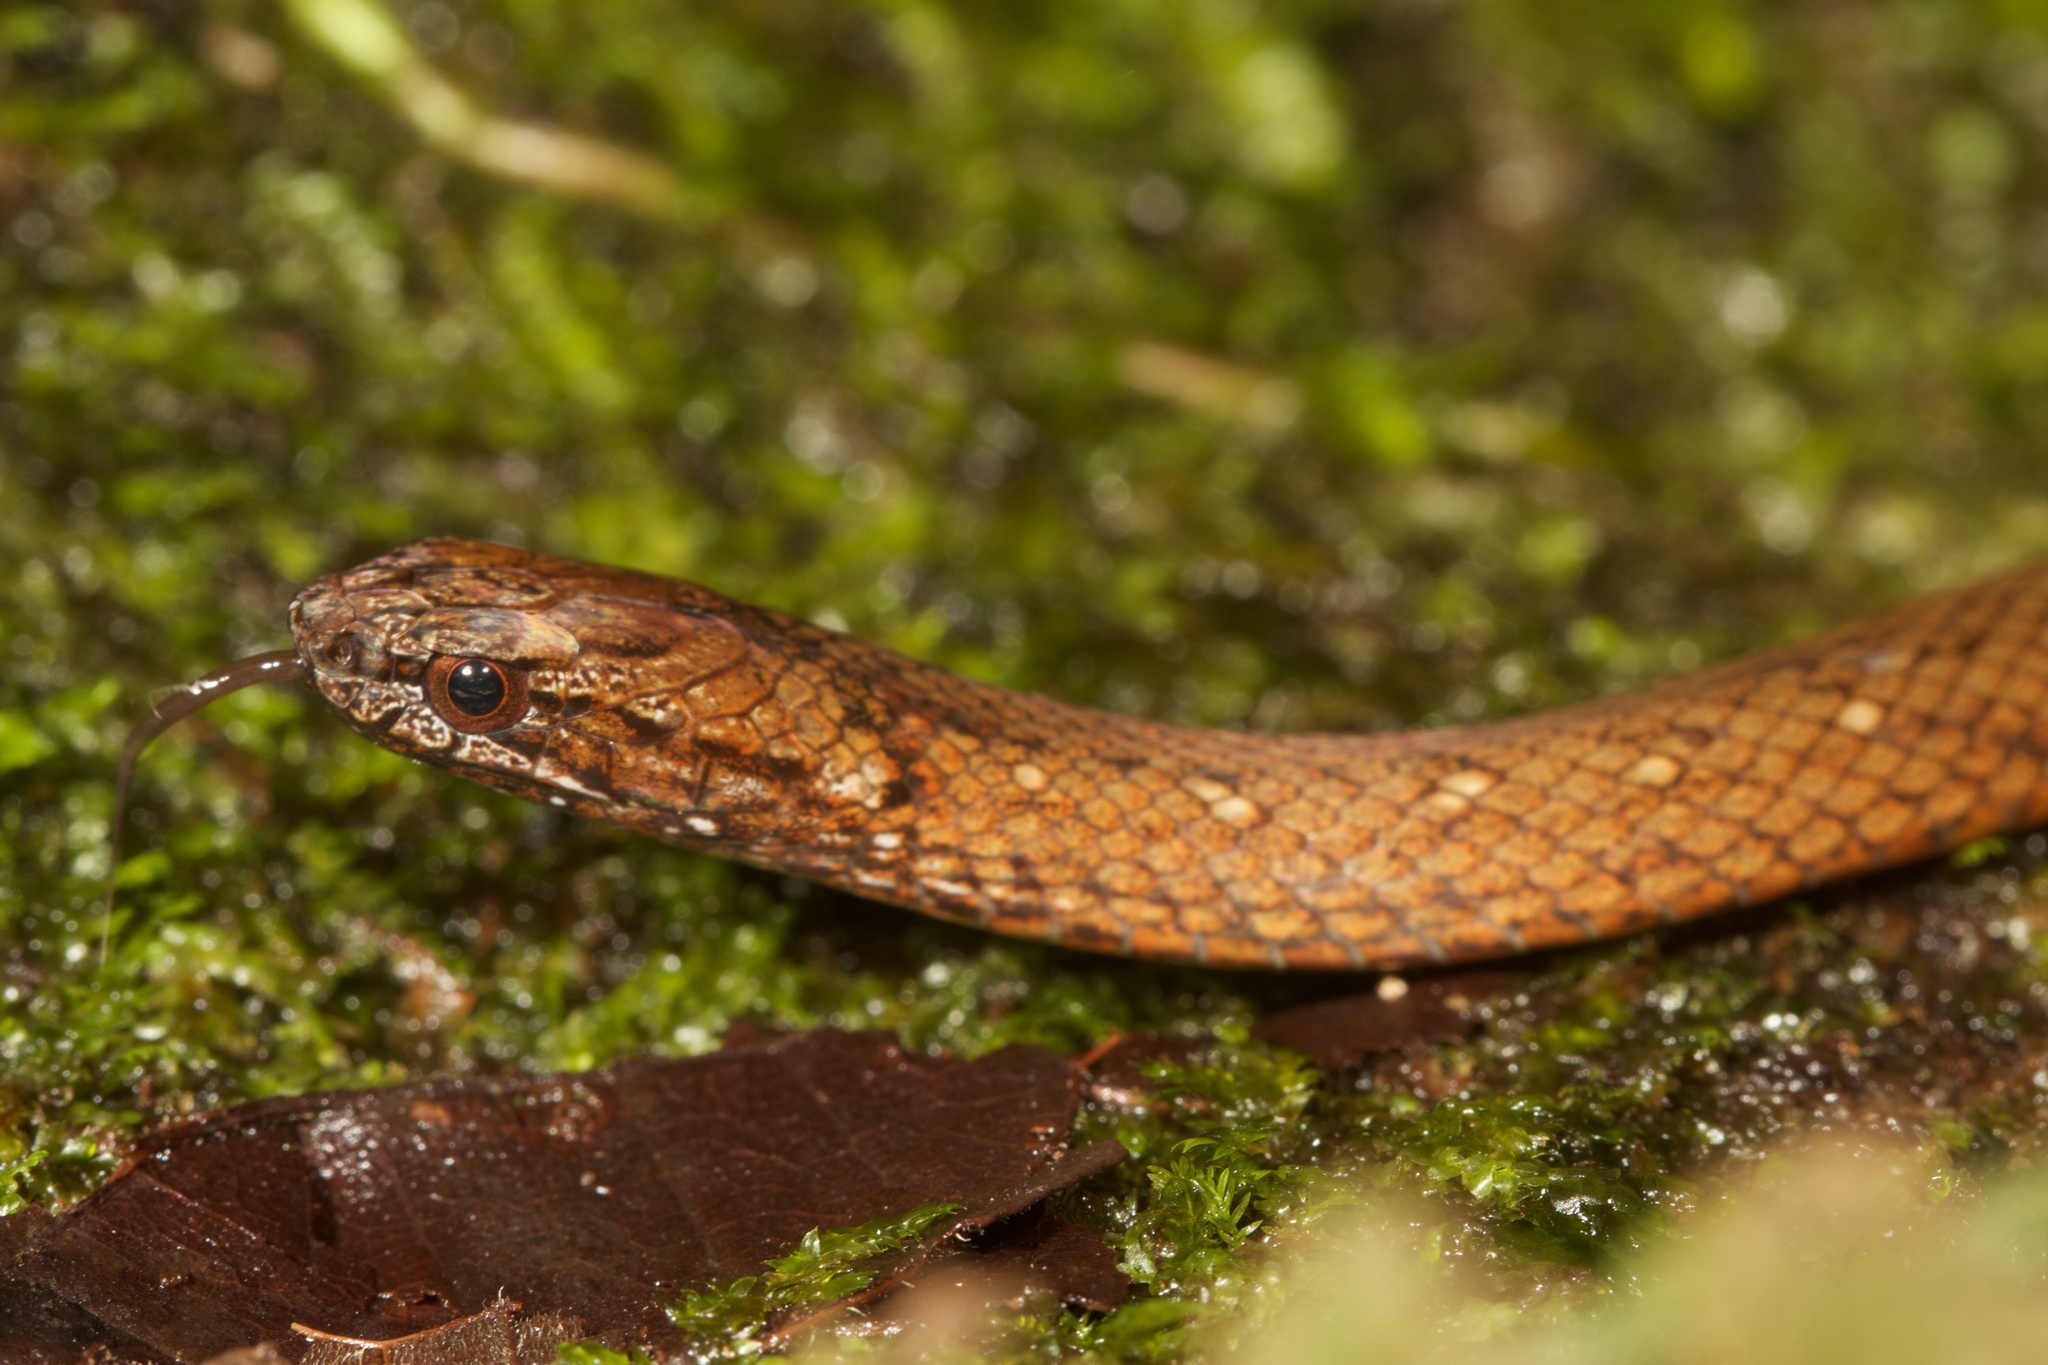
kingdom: Animalia
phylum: Chordata
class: Squamata
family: Colubridae
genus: Amastridium
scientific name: Amastridium veliferum
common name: Rustyhead snake
